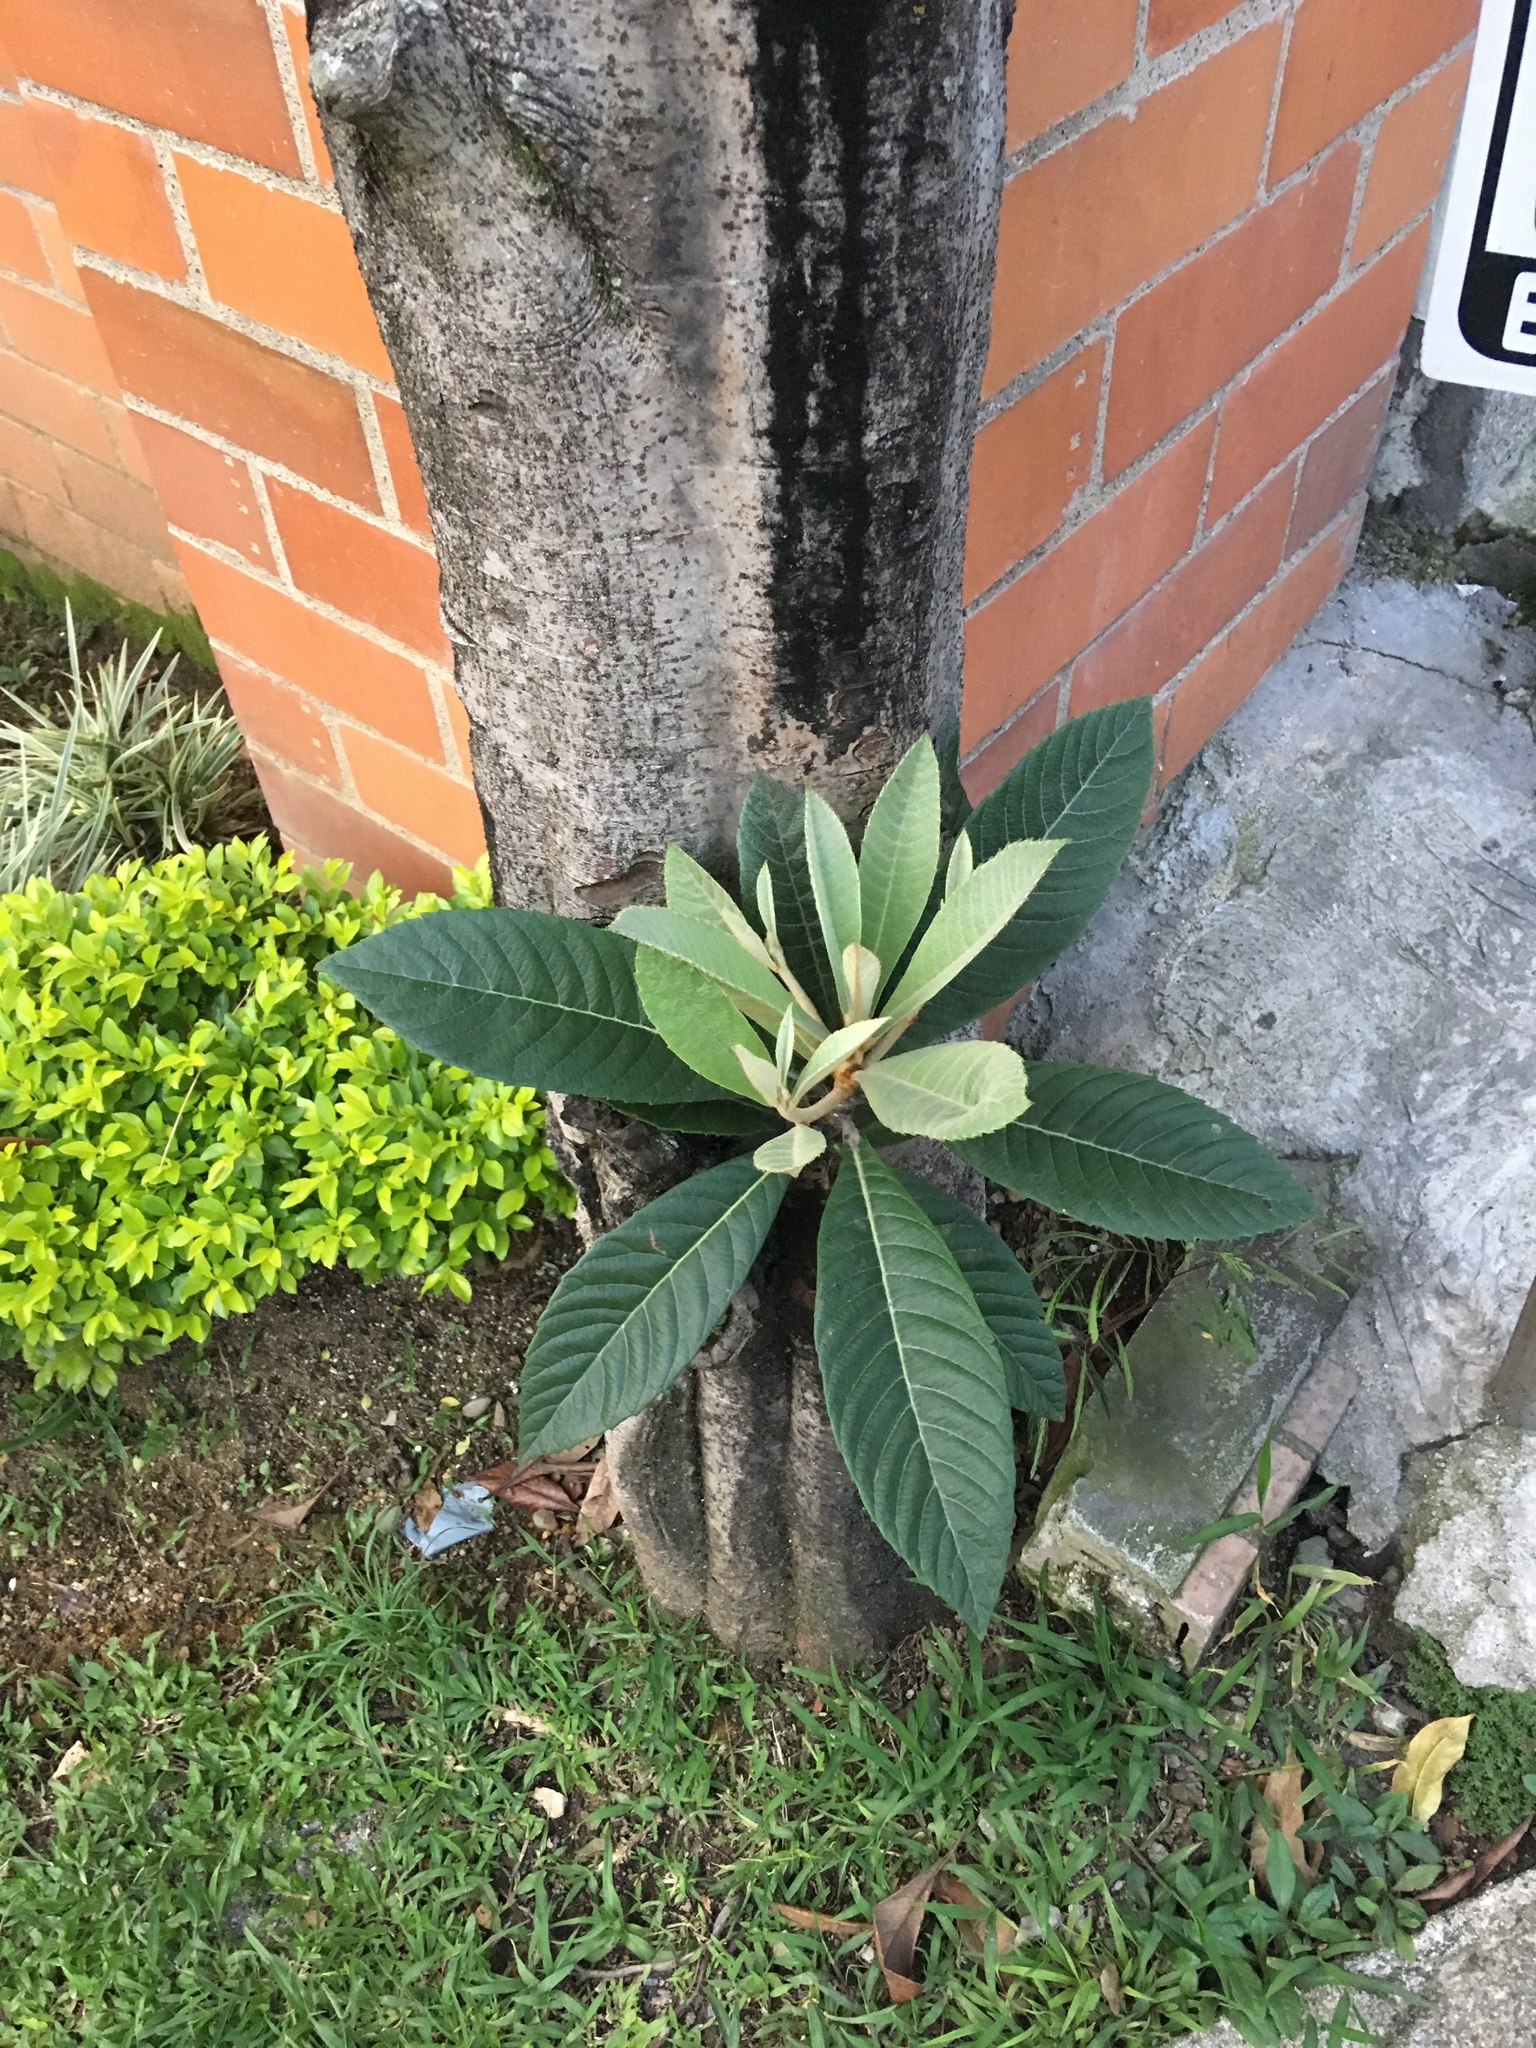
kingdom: Plantae
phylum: Tracheophyta
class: Magnoliopsida
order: Rosales
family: Rosaceae
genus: Rhaphiolepis
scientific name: Rhaphiolepis bibas
